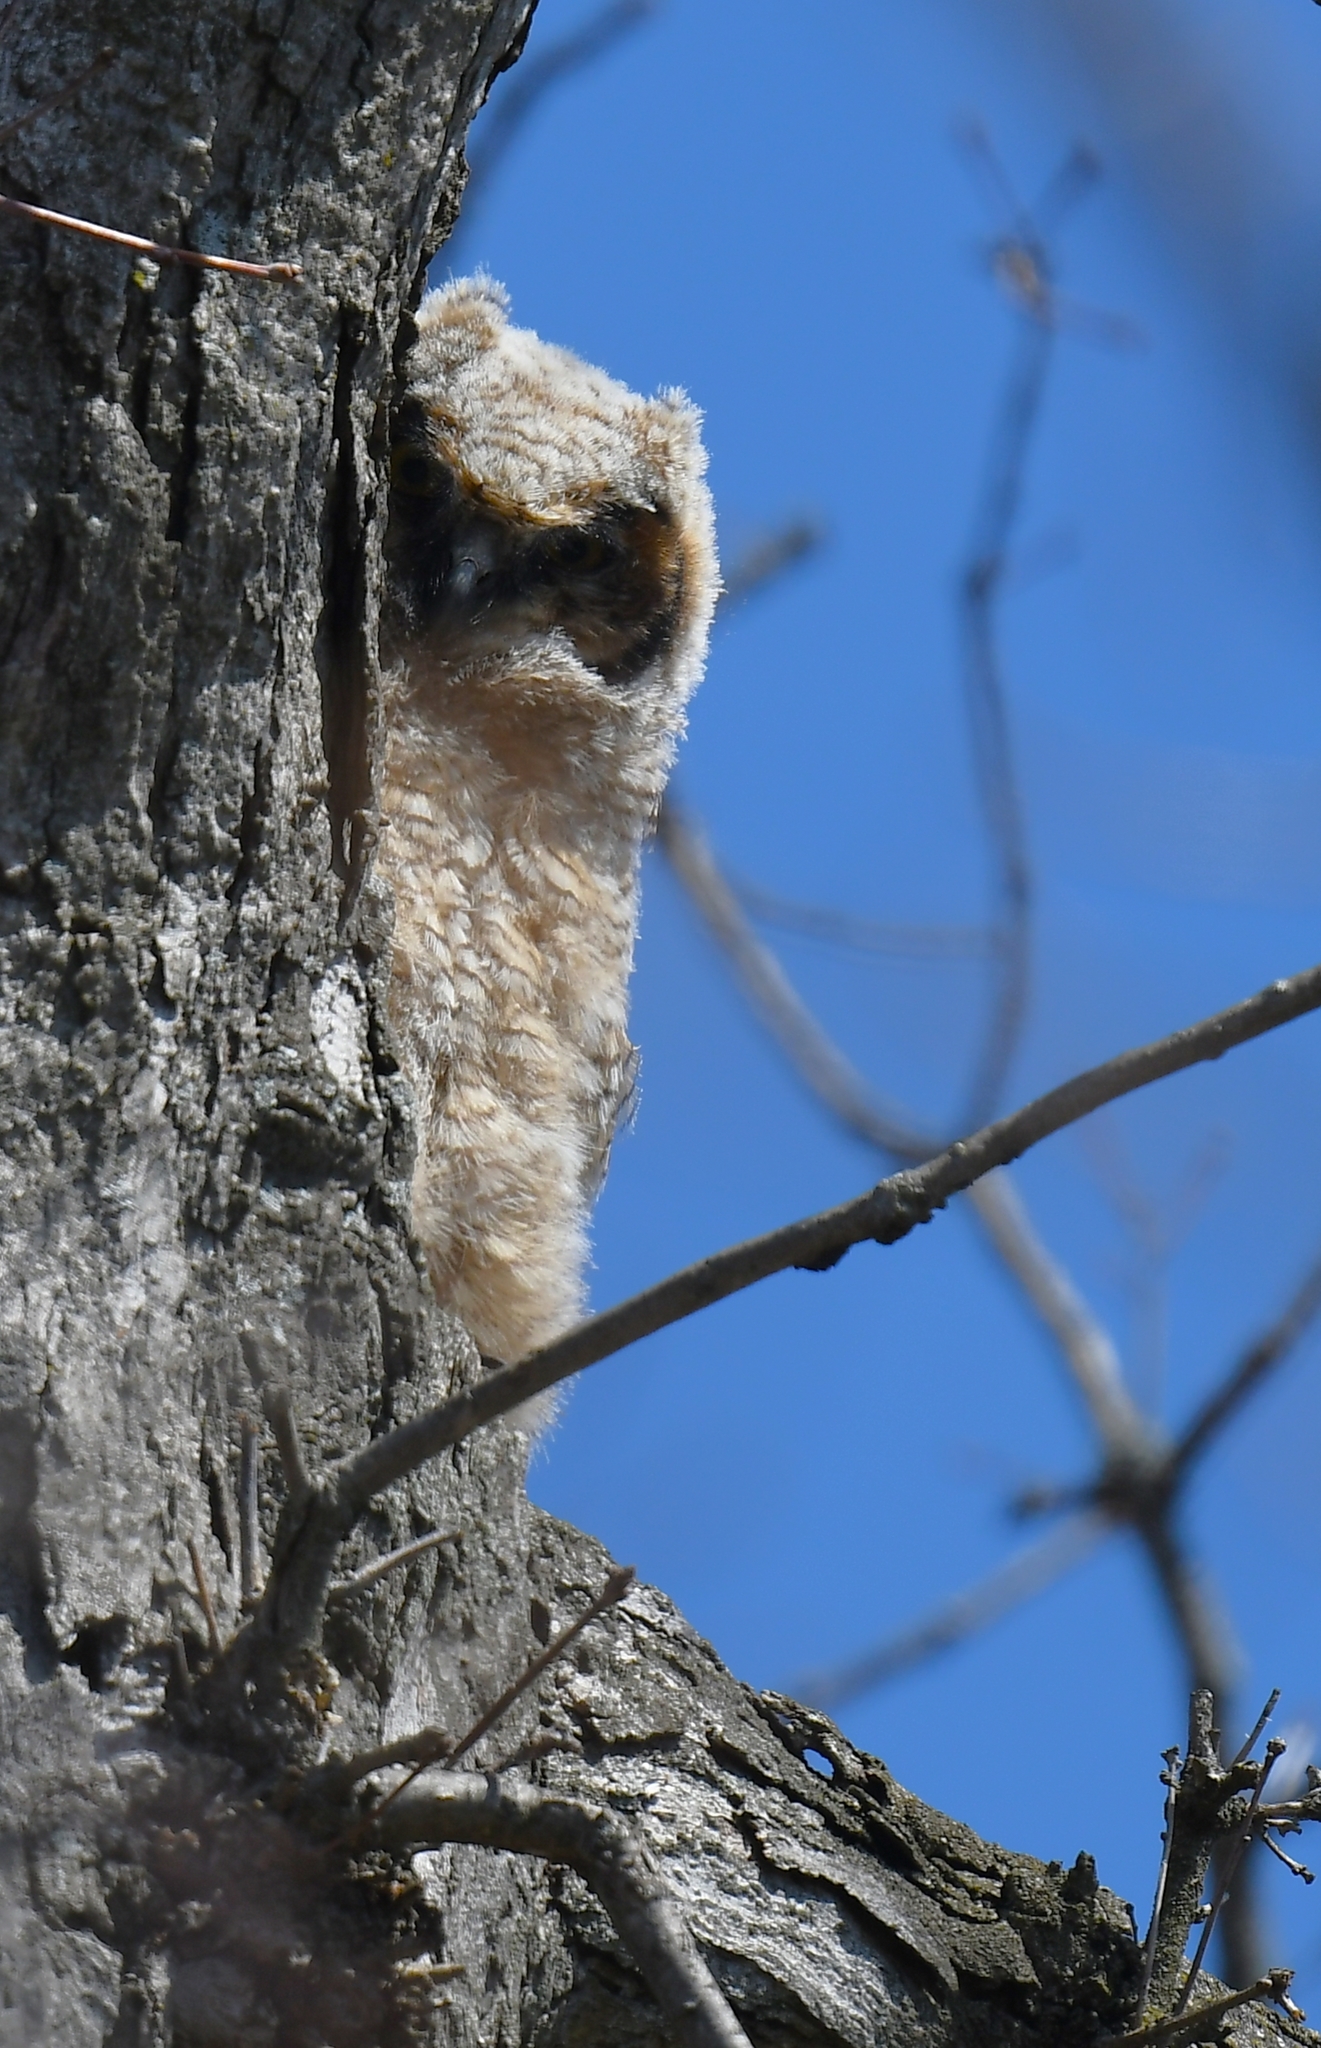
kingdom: Animalia
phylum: Chordata
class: Aves
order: Strigiformes
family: Strigidae
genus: Bubo
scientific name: Bubo virginianus
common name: Great horned owl
